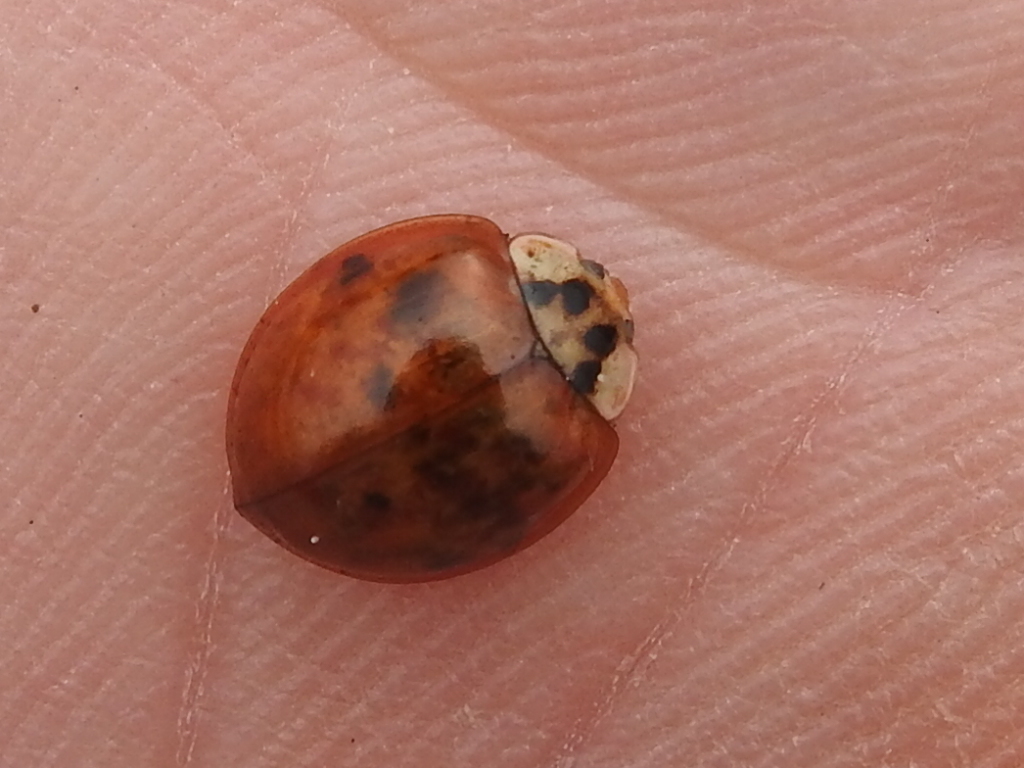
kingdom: Animalia
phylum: Arthropoda
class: Insecta
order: Coleoptera
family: Coccinellidae
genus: Harmonia
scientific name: Harmonia axyridis
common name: Harlequin ladybird
